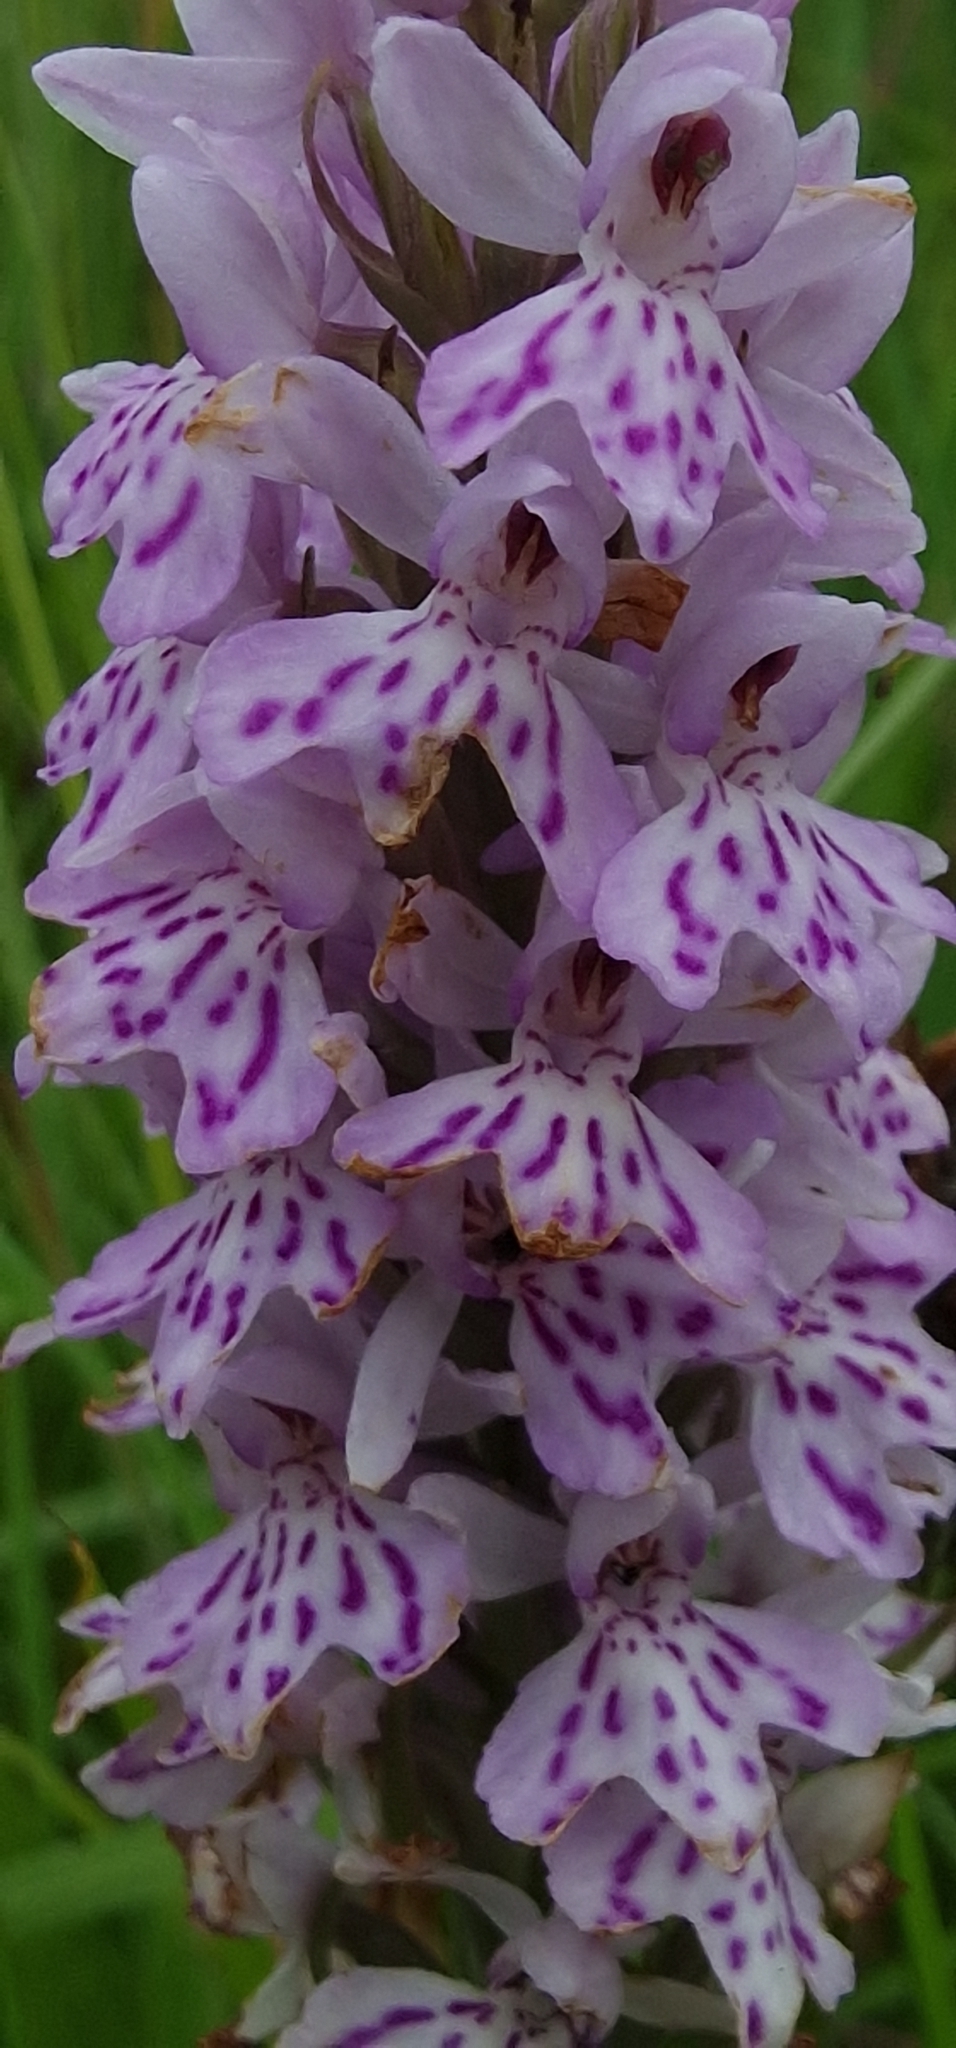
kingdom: Plantae
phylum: Tracheophyta
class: Liliopsida
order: Asparagales
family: Orchidaceae
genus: Dactylorhiza
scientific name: Dactylorhiza maculata
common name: Heath spotted-orchid
